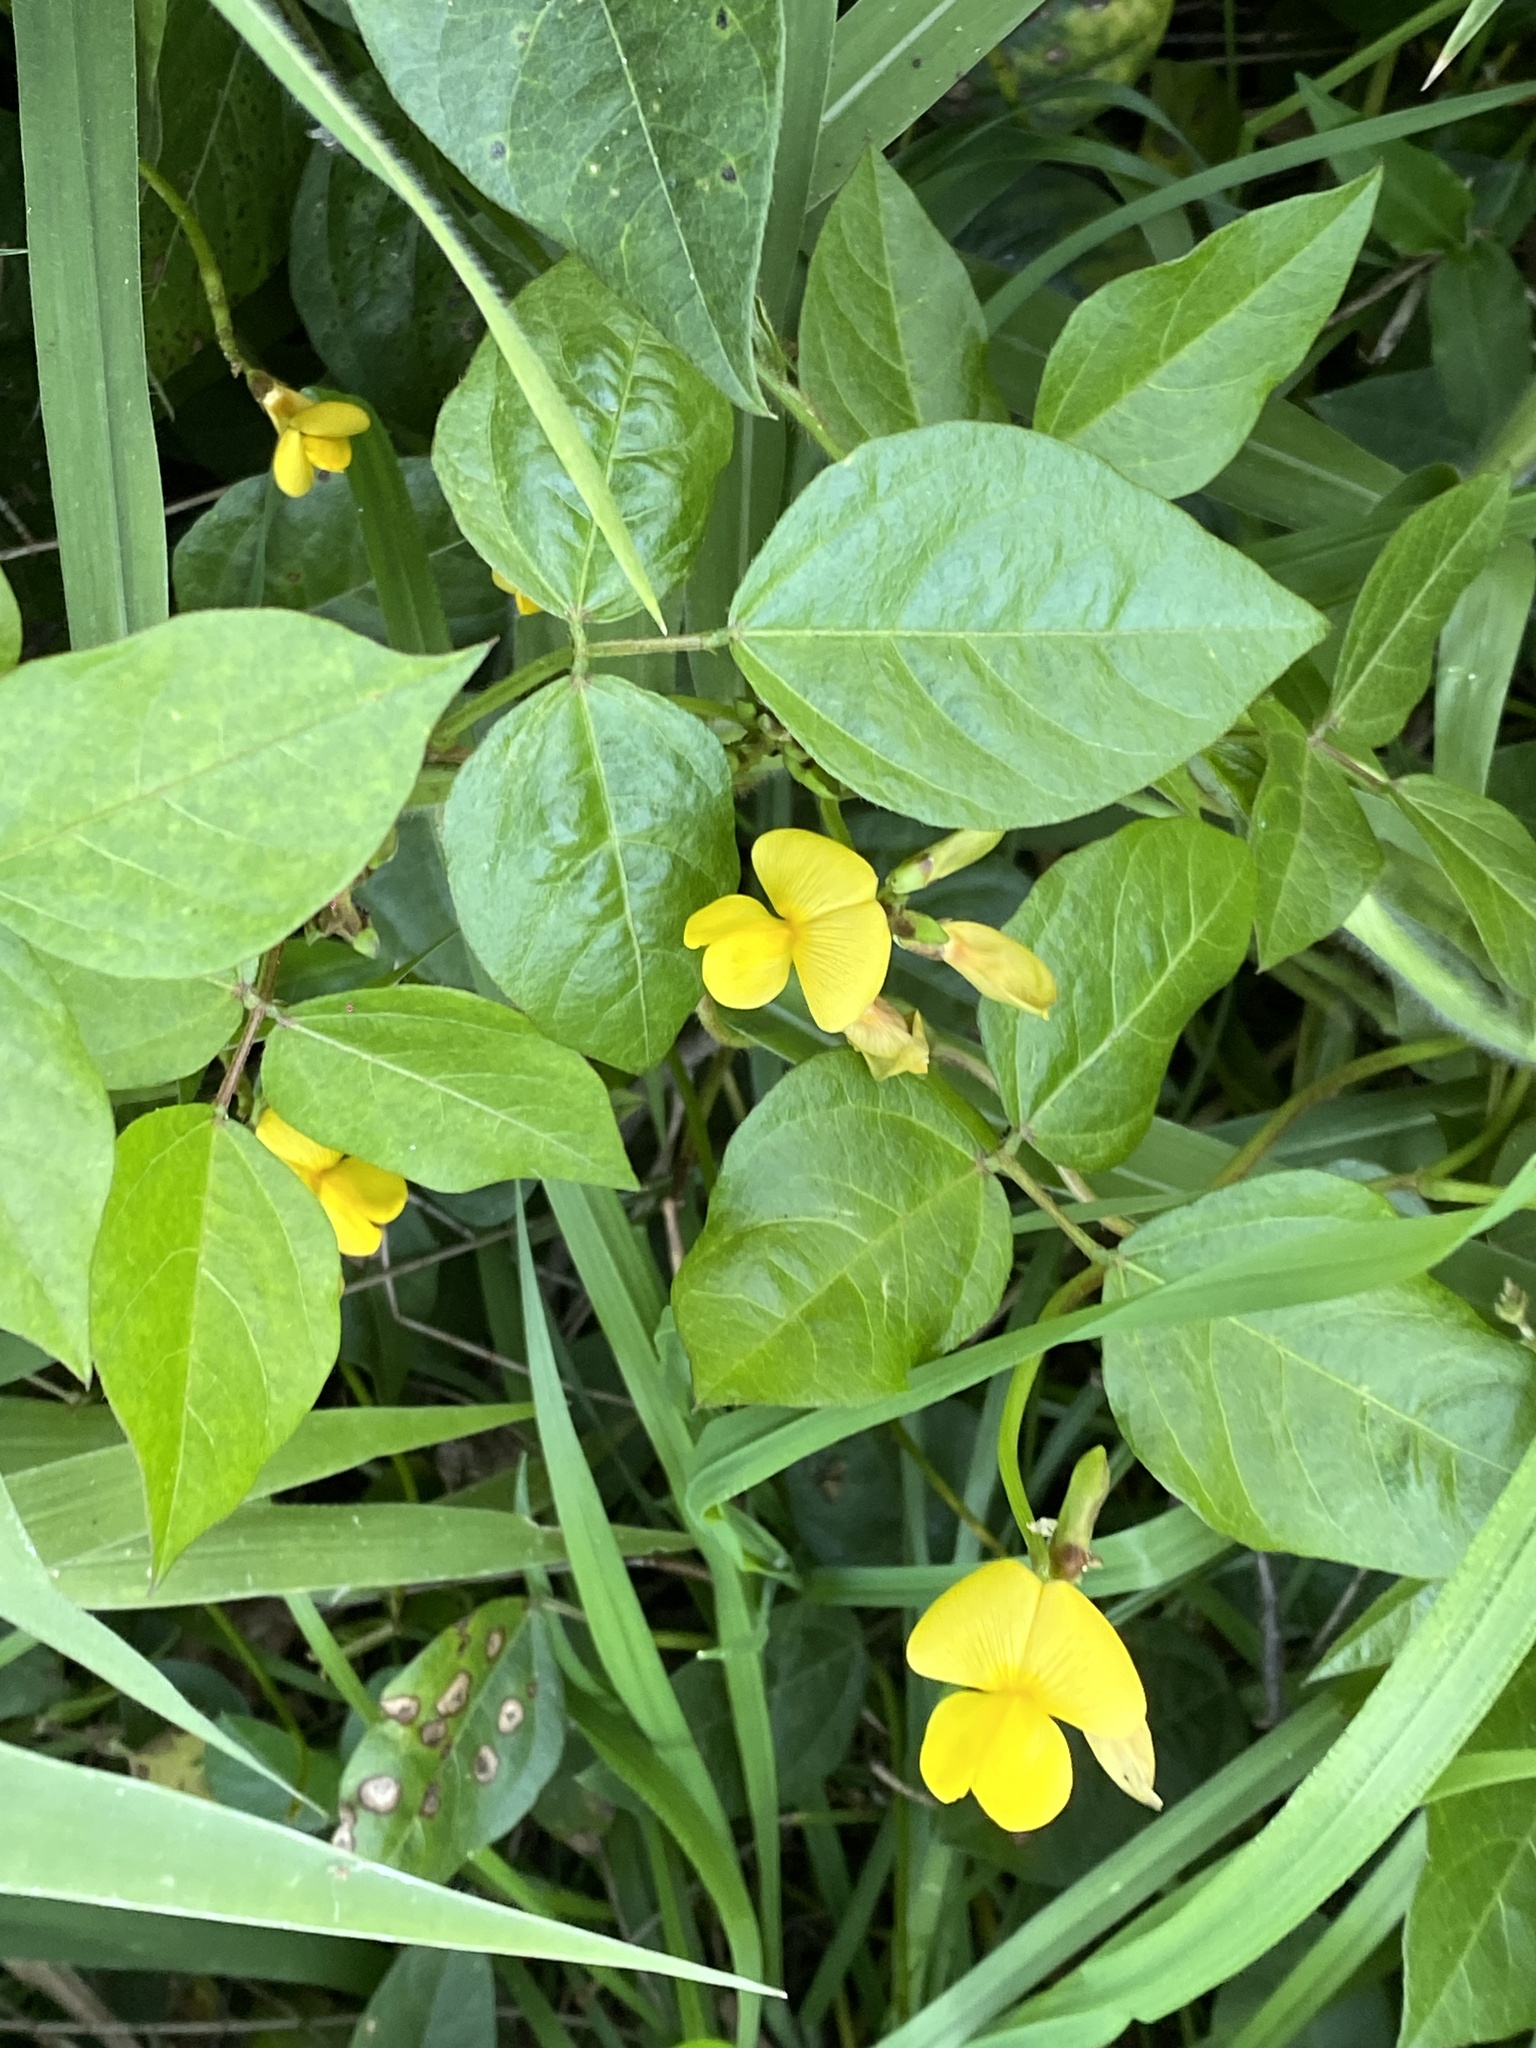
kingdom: Plantae
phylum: Tracheophyta
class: Magnoliopsida
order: Fabales
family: Fabaceae
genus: Vigna
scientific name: Vigna luteola
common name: Hairypod cowpea
